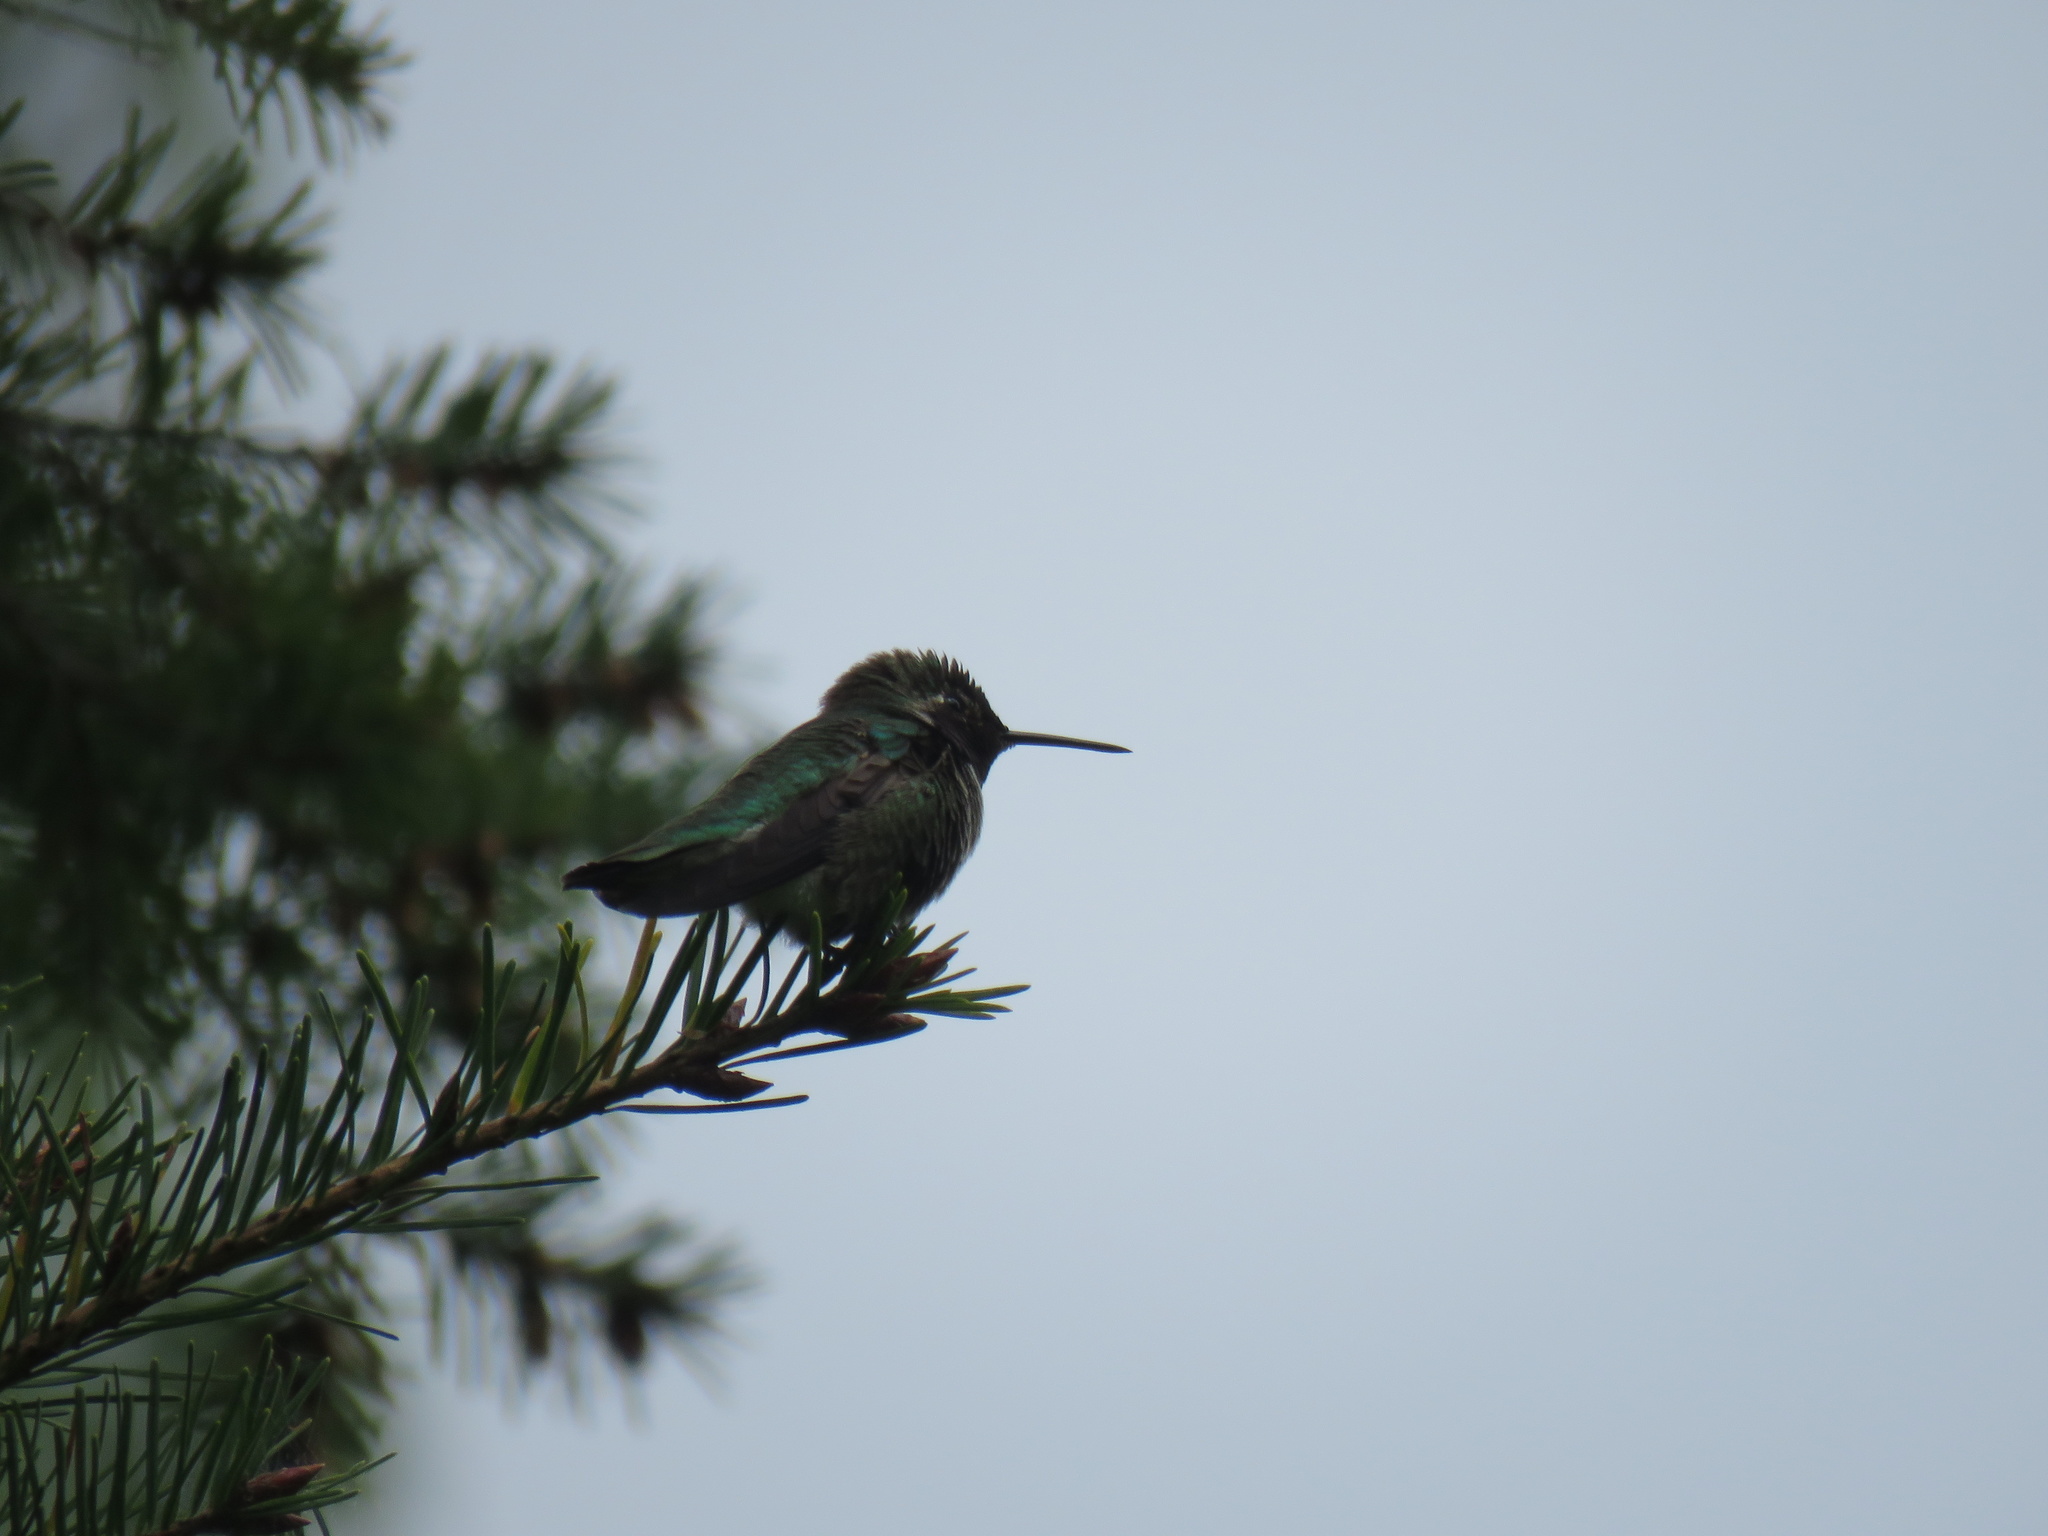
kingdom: Animalia
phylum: Chordata
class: Aves
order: Apodiformes
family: Trochilidae
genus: Calypte
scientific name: Calypte anna
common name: Anna's hummingbird
